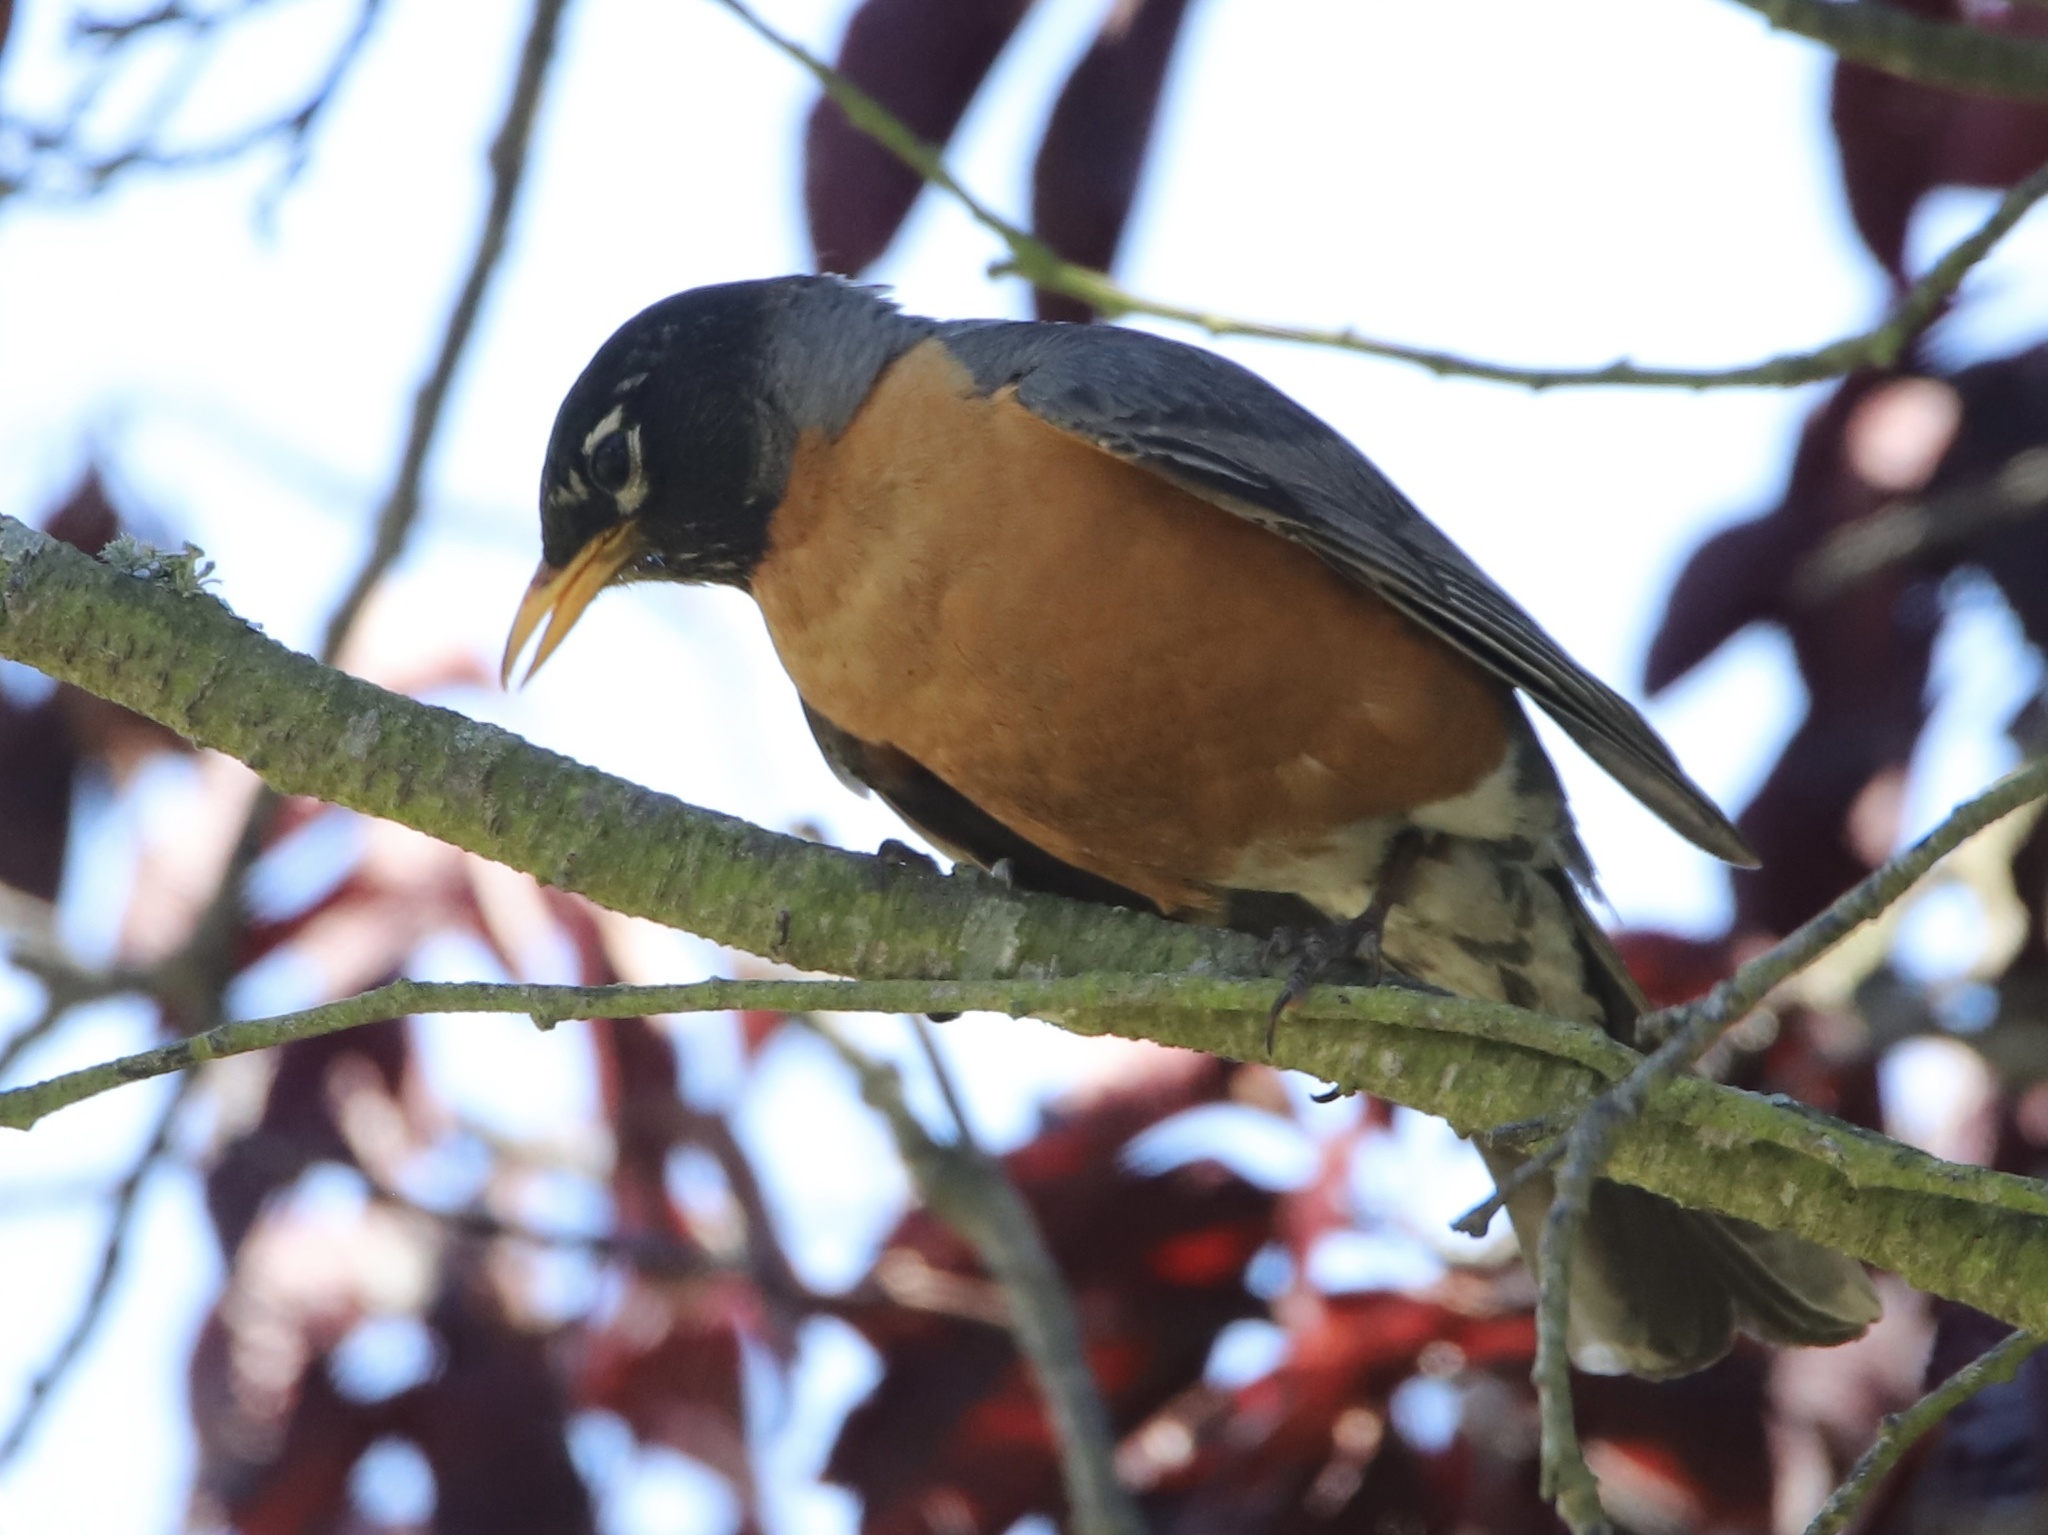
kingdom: Animalia
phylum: Chordata
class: Aves
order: Passeriformes
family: Turdidae
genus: Turdus
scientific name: Turdus migratorius
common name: American robin
